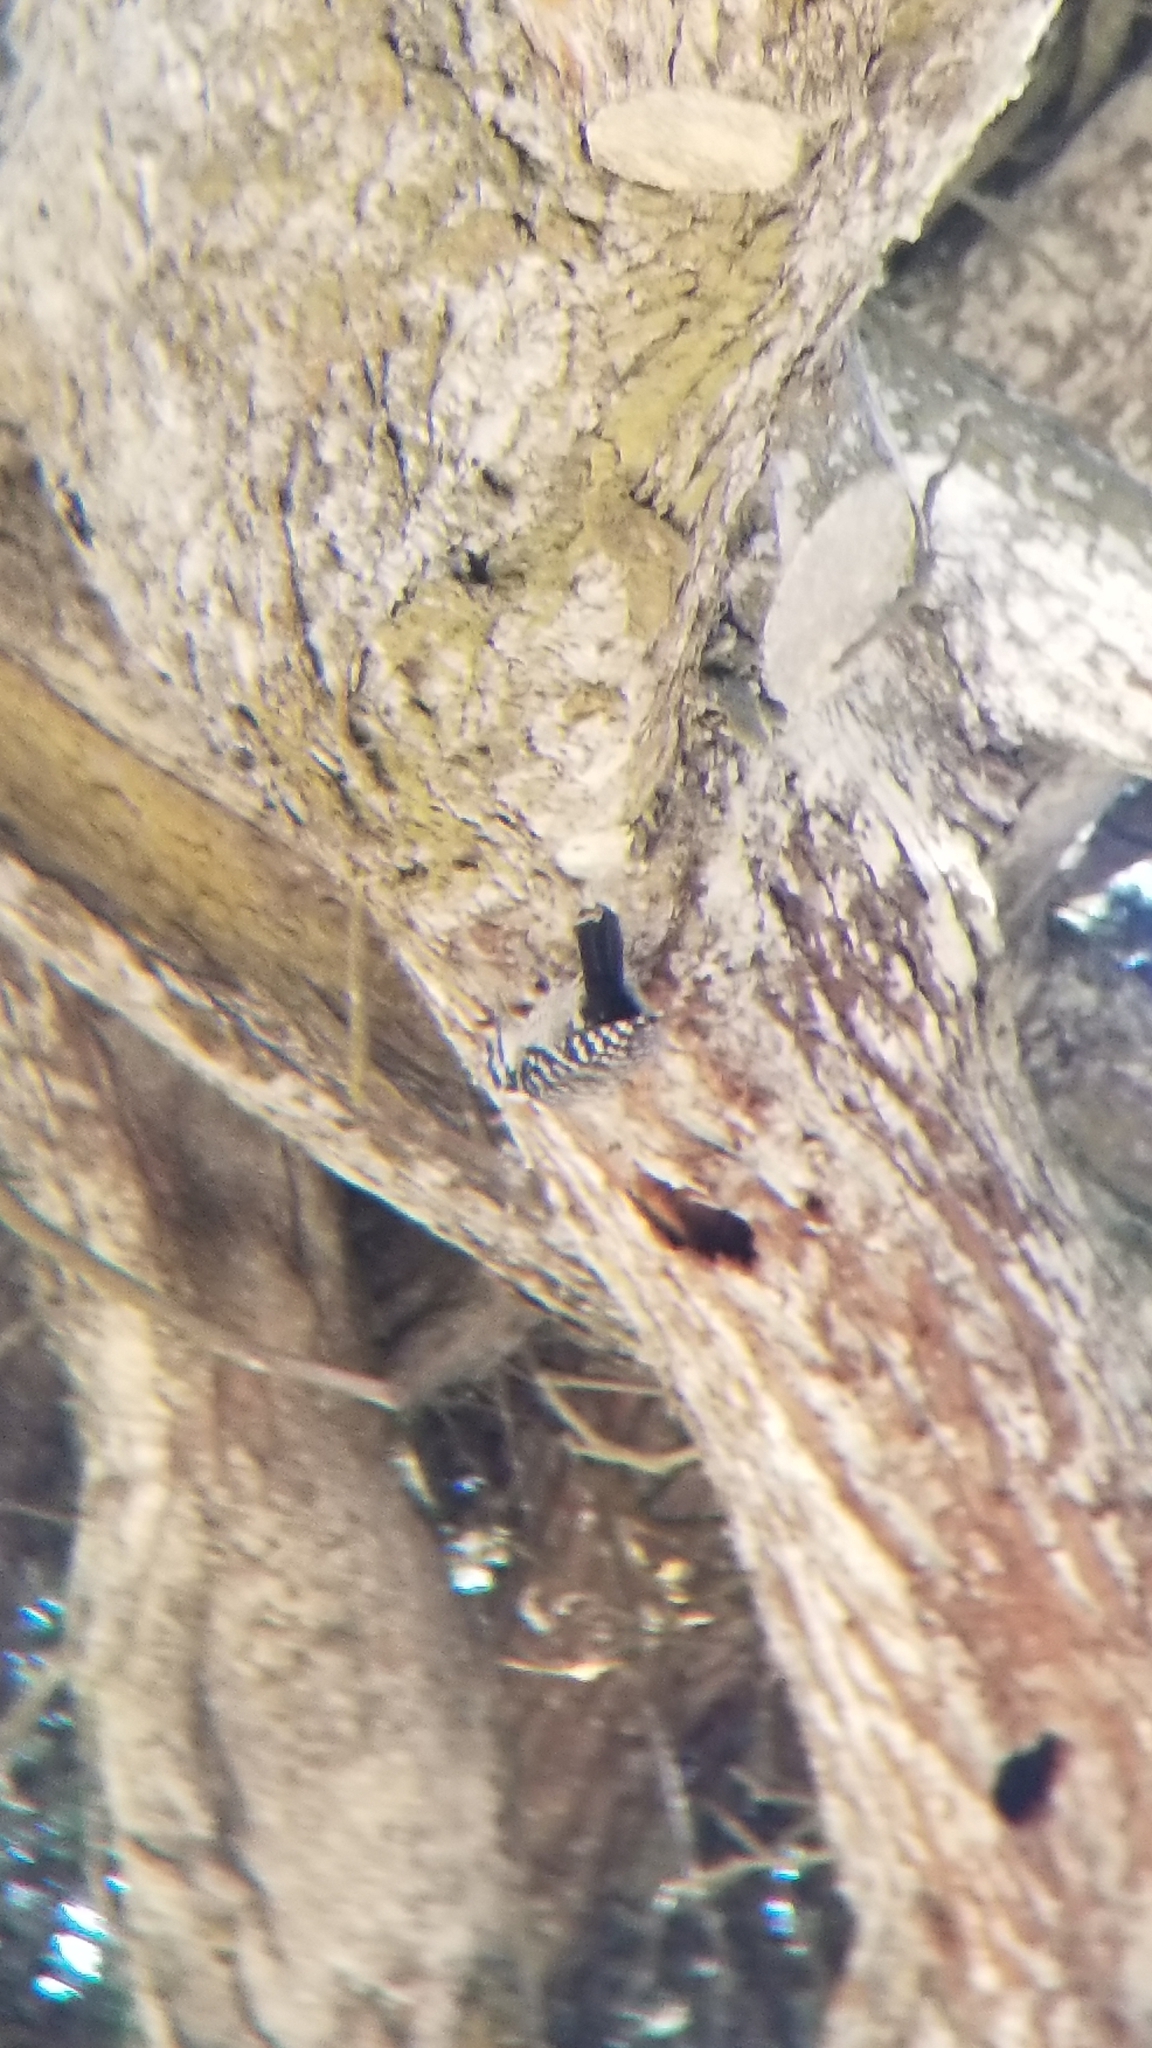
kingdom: Animalia
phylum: Chordata
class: Aves
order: Piciformes
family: Picidae
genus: Dryobates
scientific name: Dryobates nuttallii
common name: Nuttall's woodpecker
